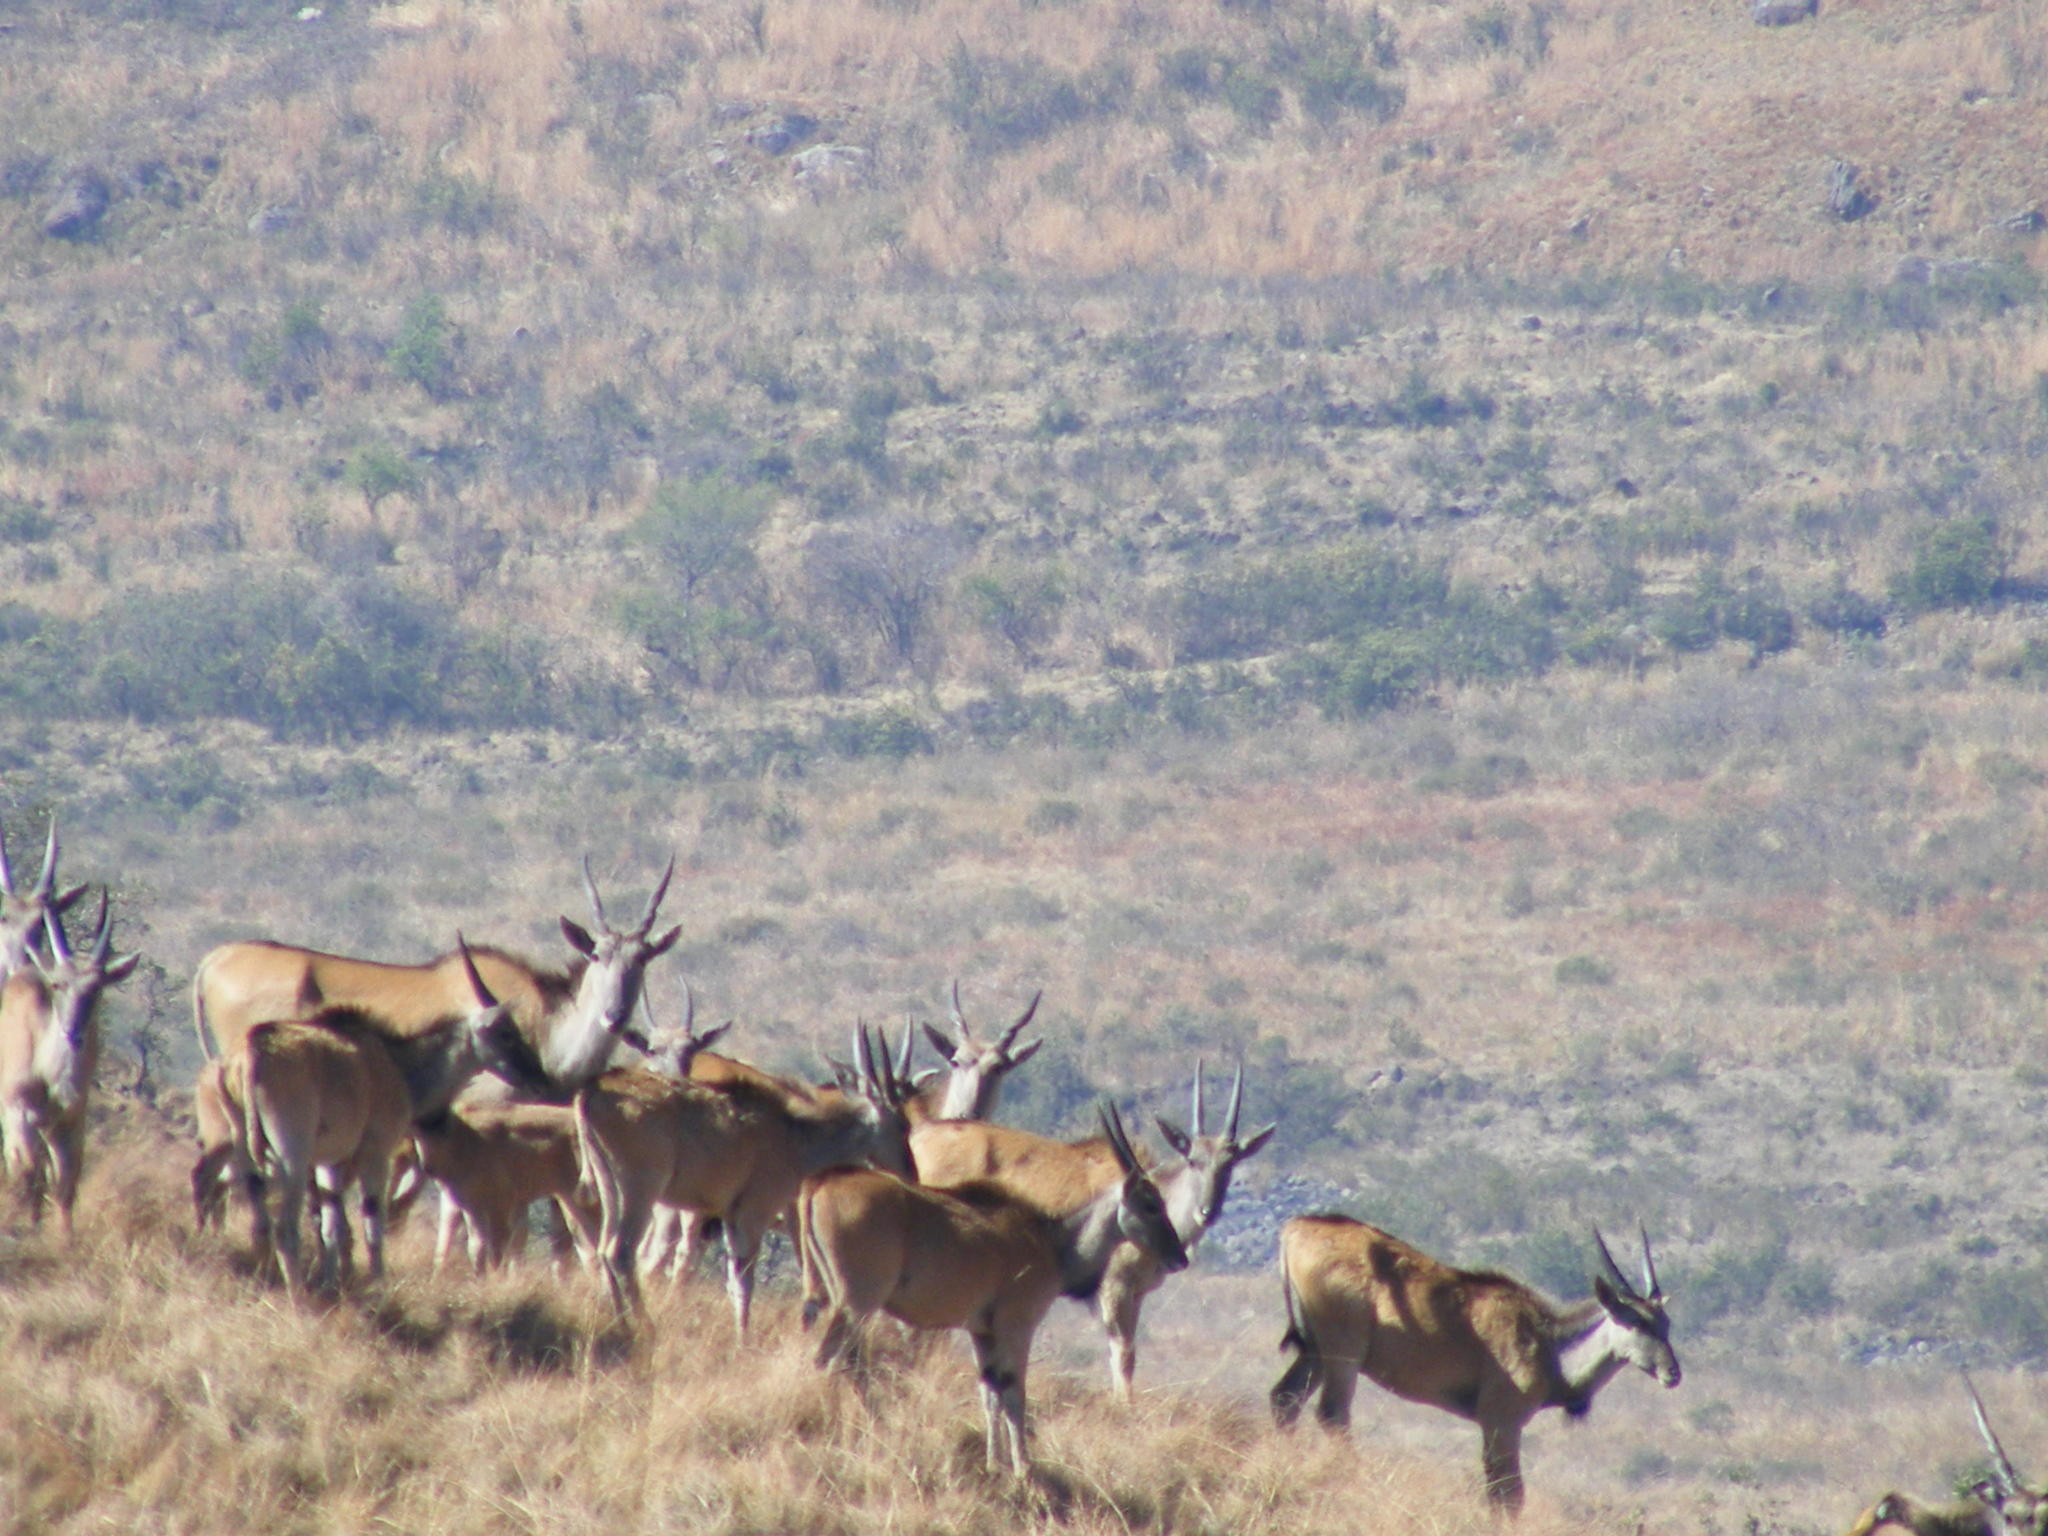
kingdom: Animalia
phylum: Chordata
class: Mammalia
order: Artiodactyla
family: Bovidae
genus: Taurotragus
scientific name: Taurotragus oryx
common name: Common eland
